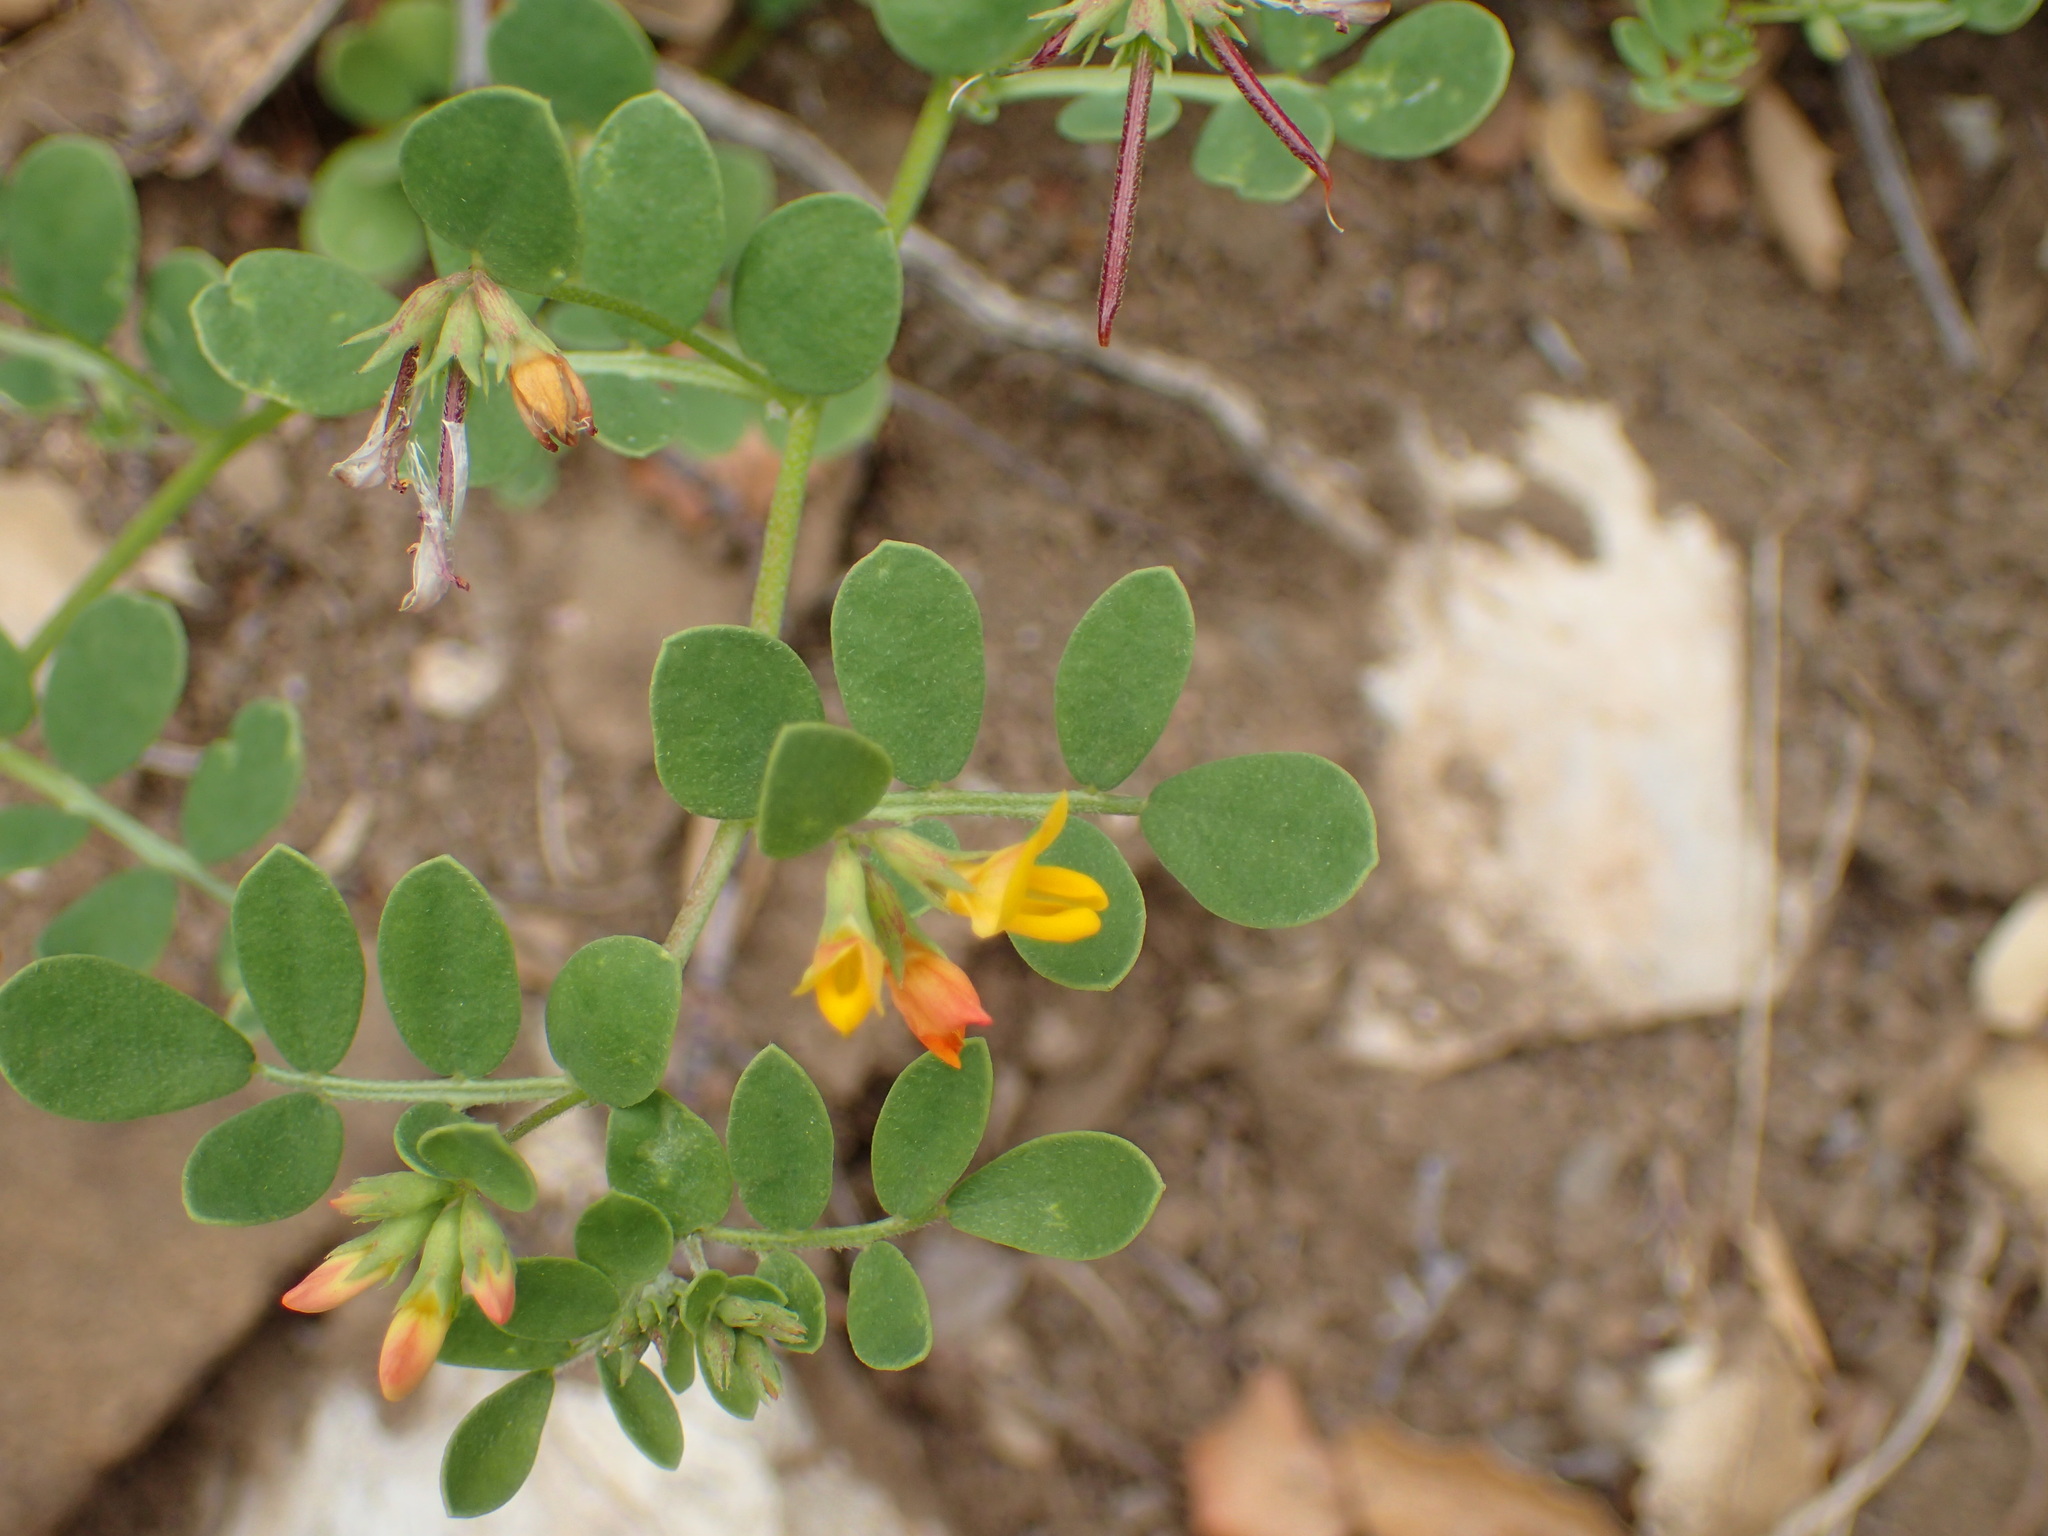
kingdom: Plantae
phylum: Tracheophyta
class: Magnoliopsida
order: Fabales
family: Fabaceae
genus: Acmispon
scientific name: Acmispon maritimus
